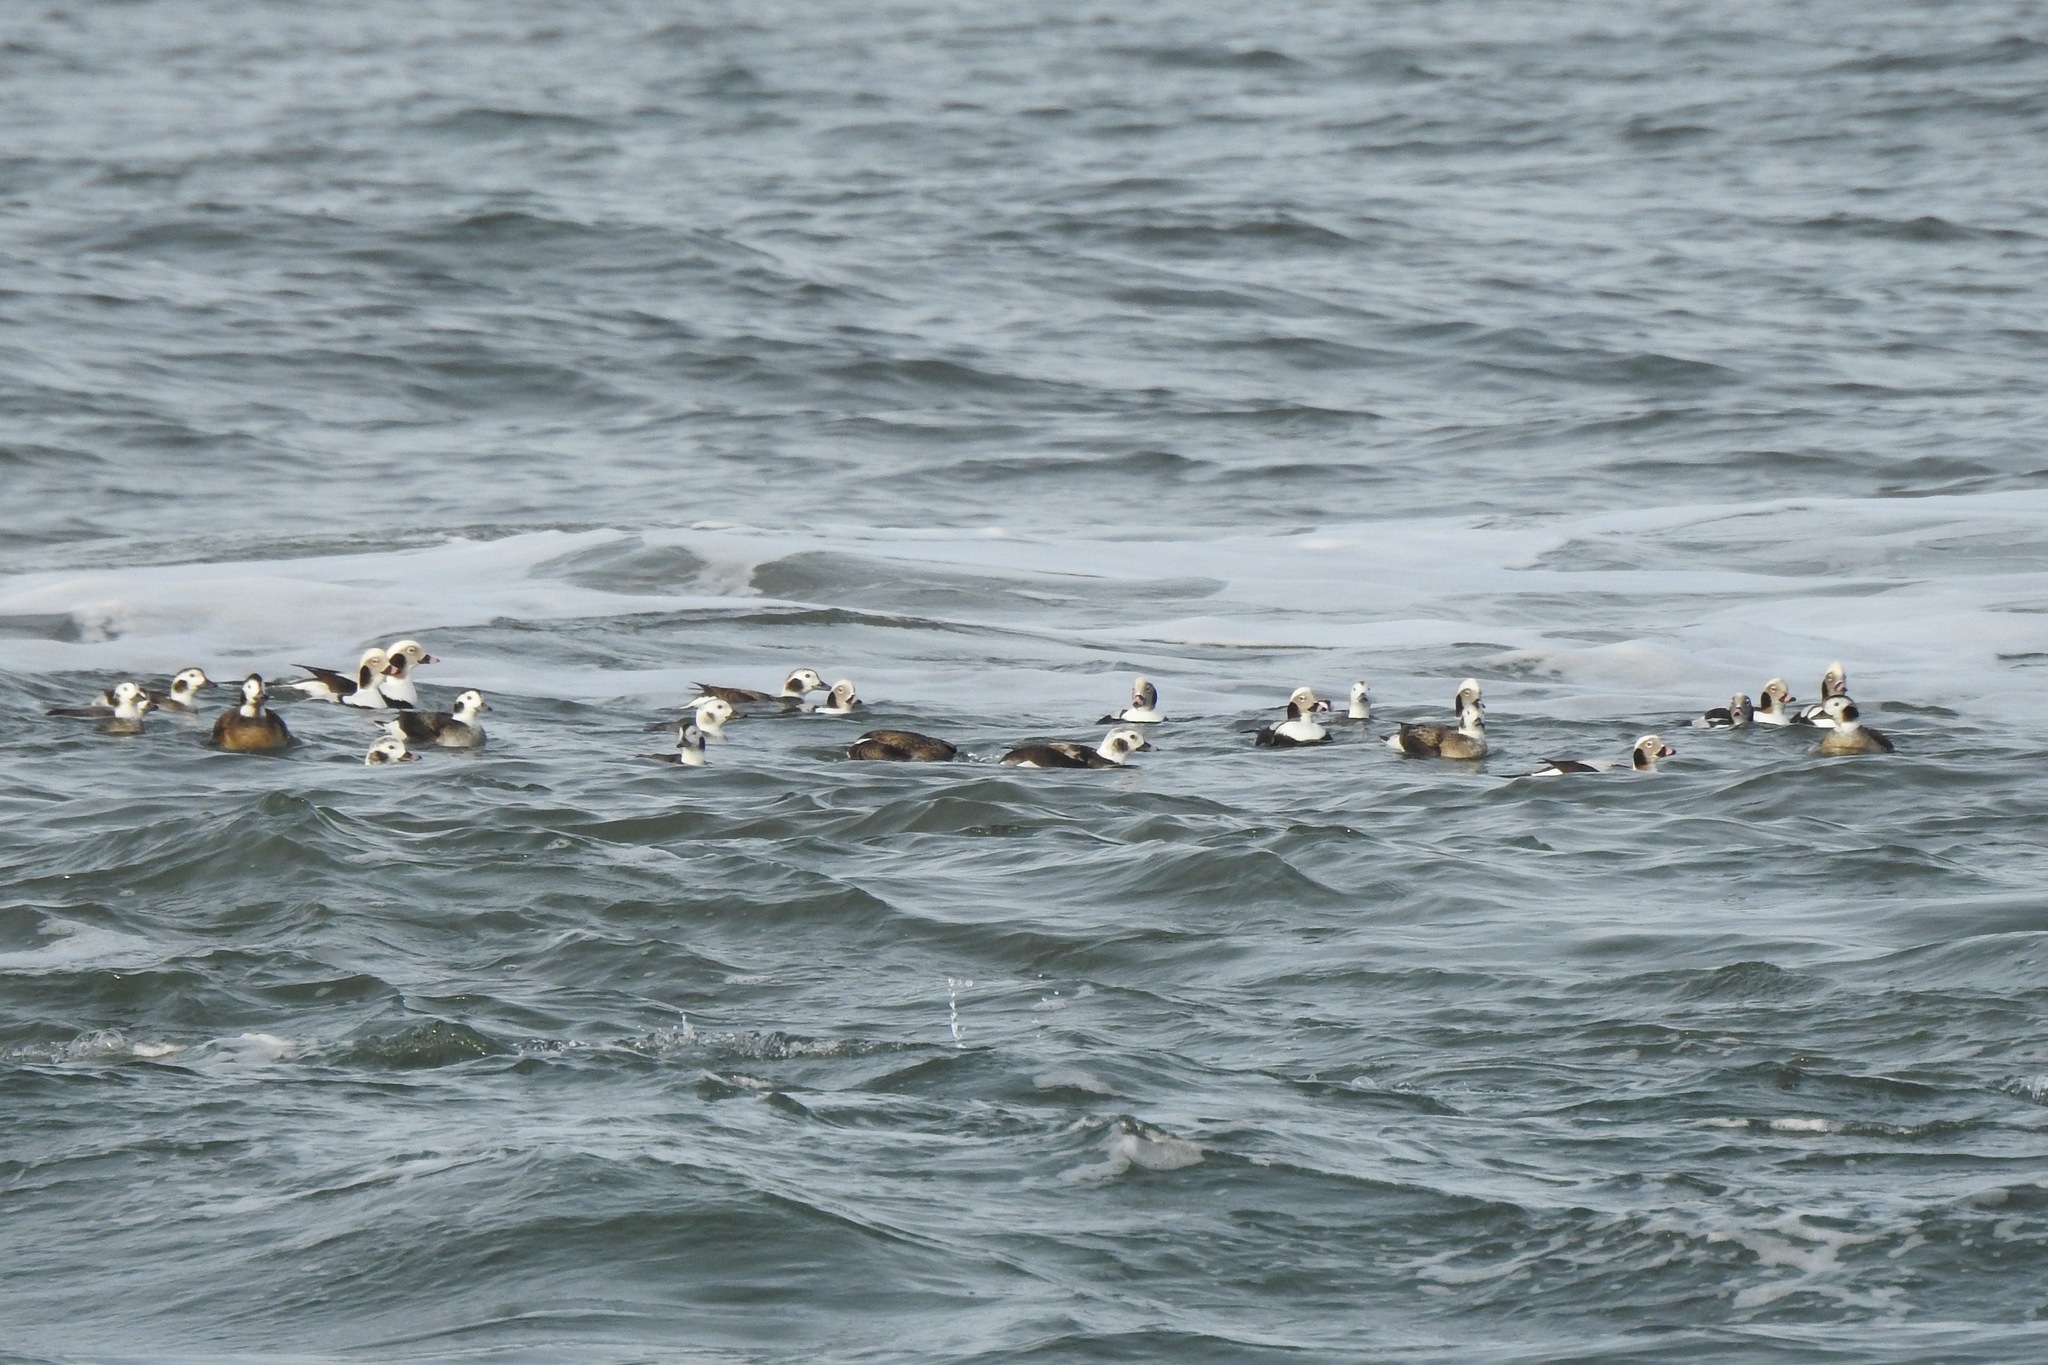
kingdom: Animalia
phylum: Chordata
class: Aves
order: Anseriformes
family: Anatidae
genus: Clangula
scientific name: Clangula hyemalis
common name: Long-tailed duck
